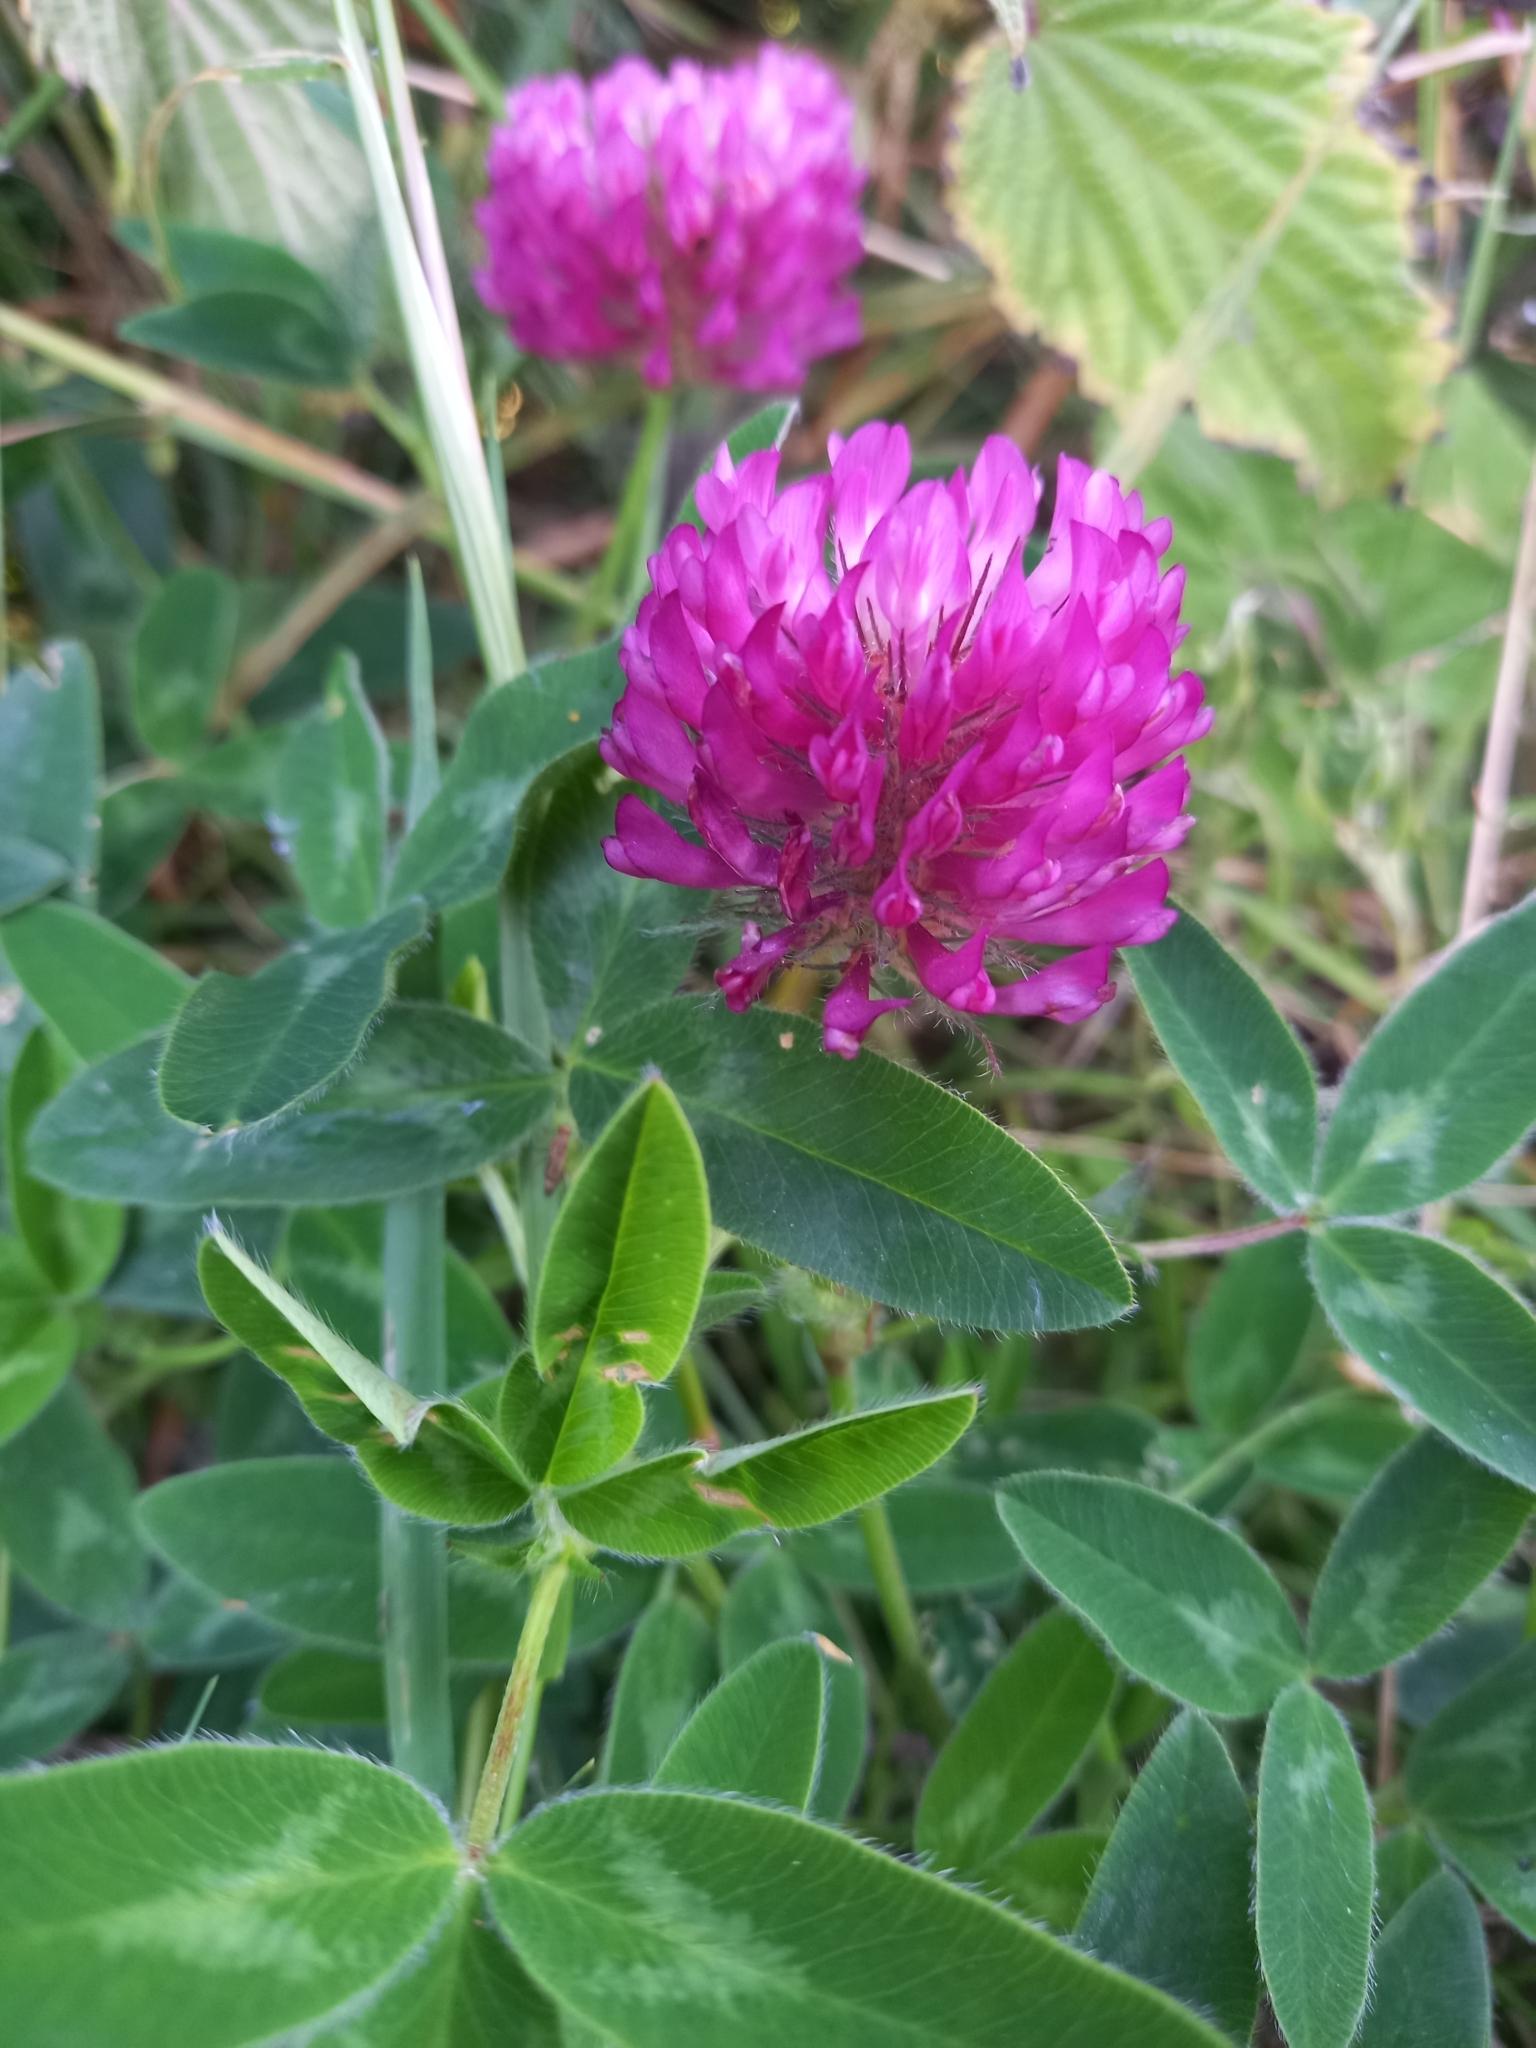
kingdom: Plantae
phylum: Tracheophyta
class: Magnoliopsida
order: Fabales
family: Fabaceae
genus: Trifolium
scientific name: Trifolium medium
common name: Zigzag clover
